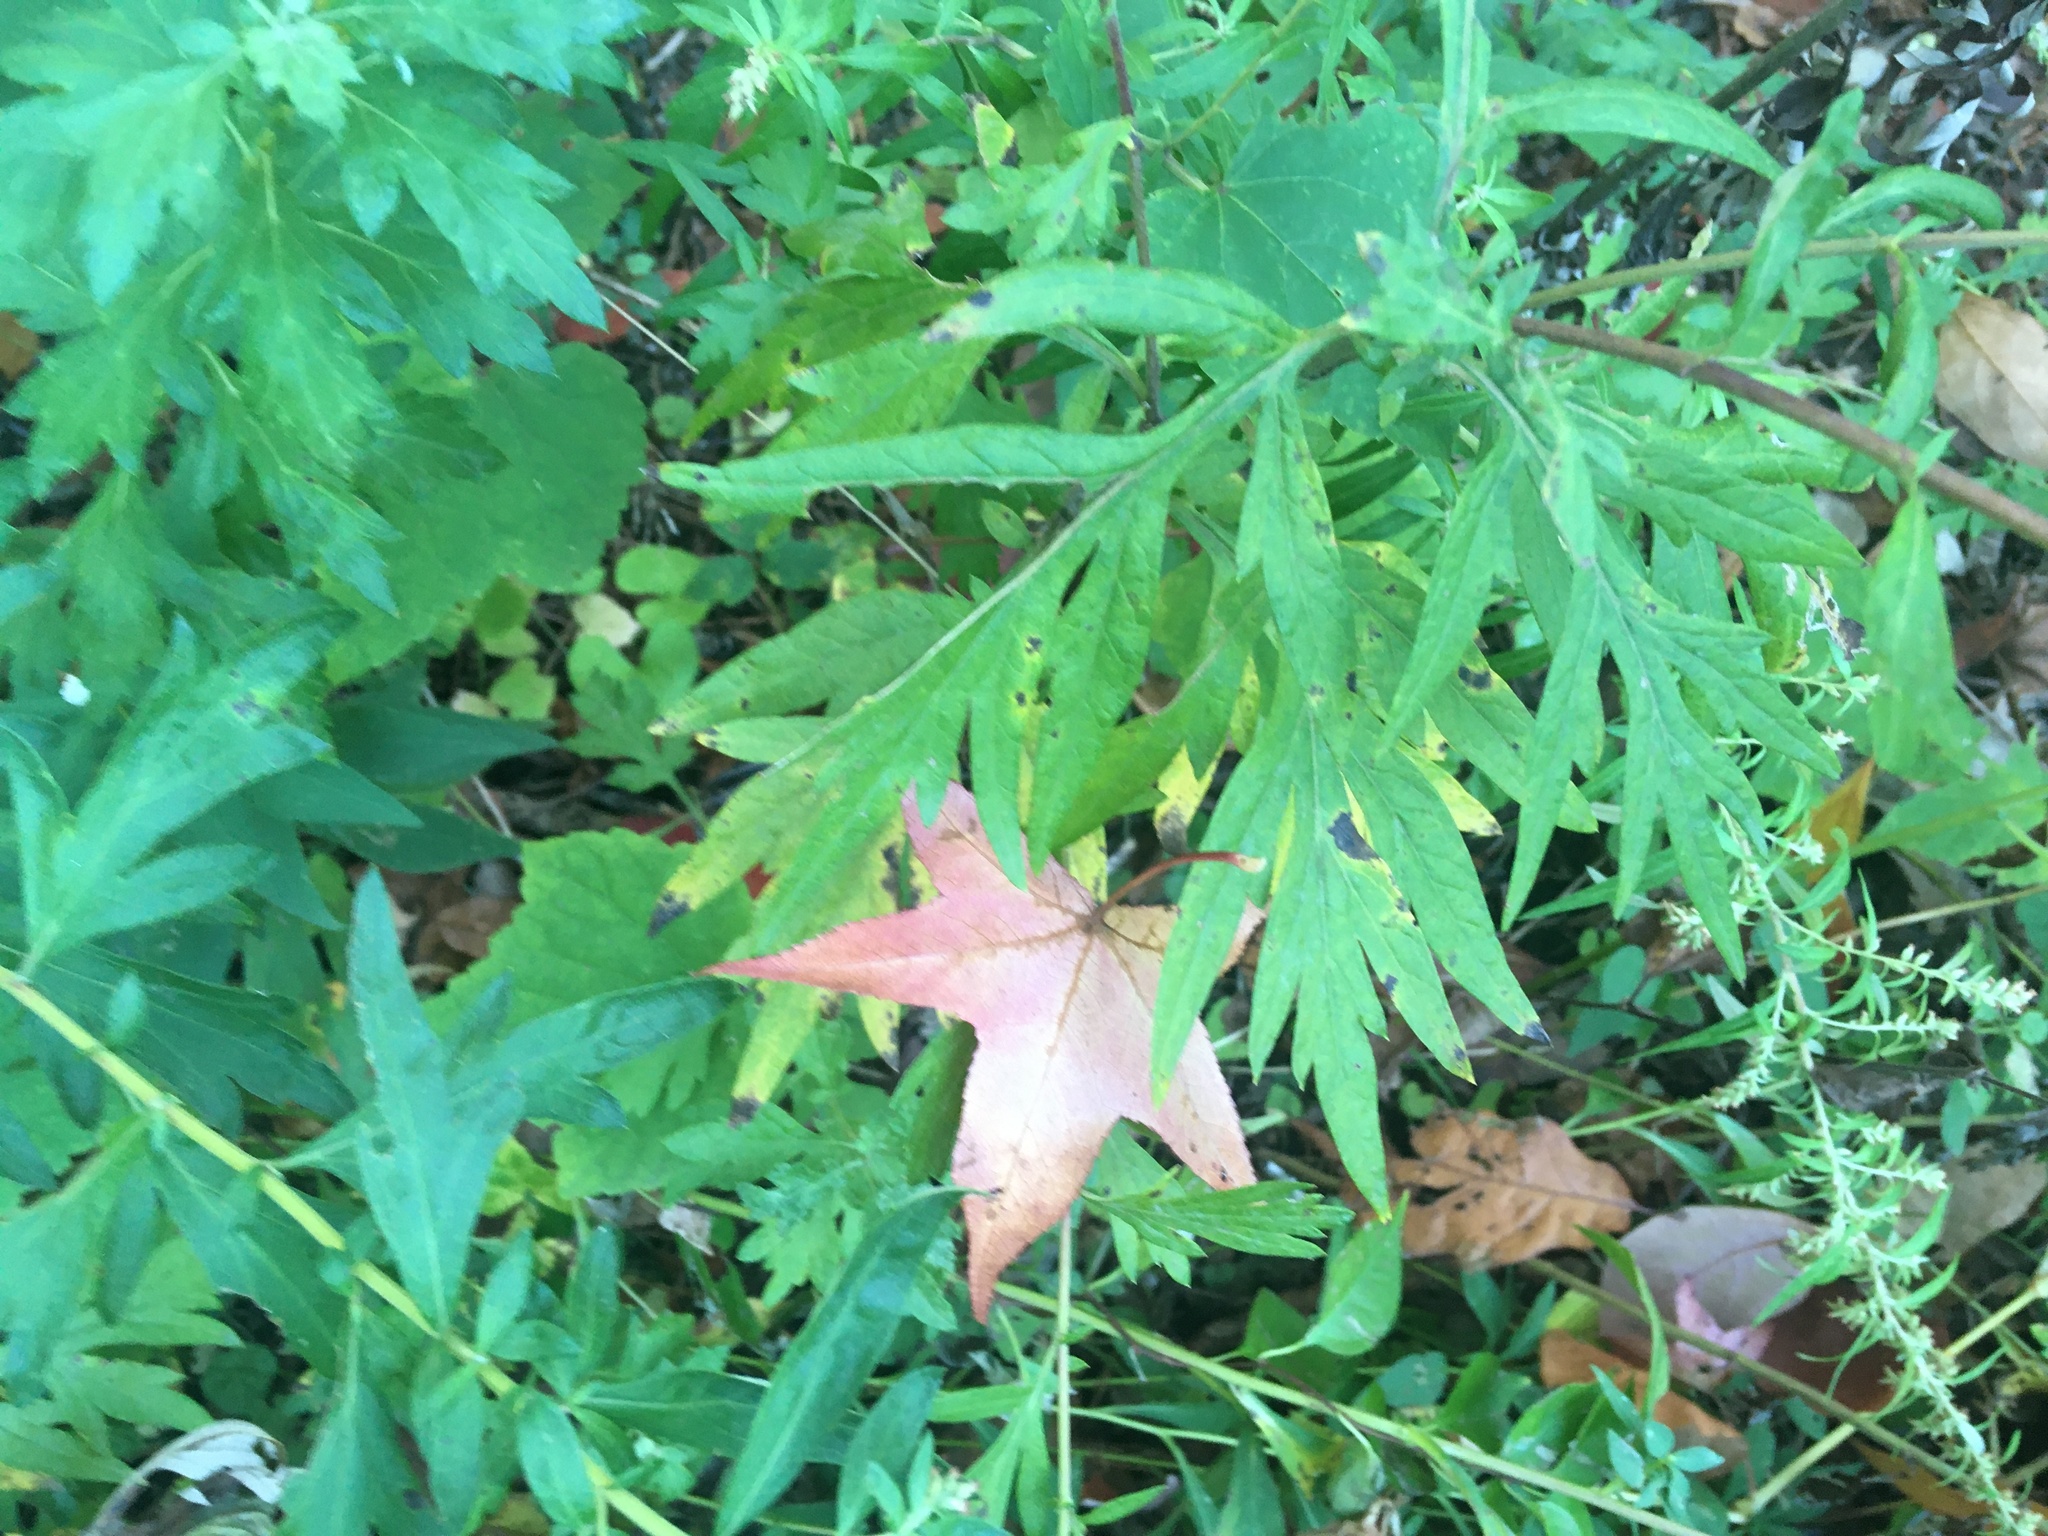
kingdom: Plantae
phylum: Tracheophyta
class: Magnoliopsida
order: Asterales
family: Asteraceae
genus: Artemisia
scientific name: Artemisia vulgaris
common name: Mugwort
